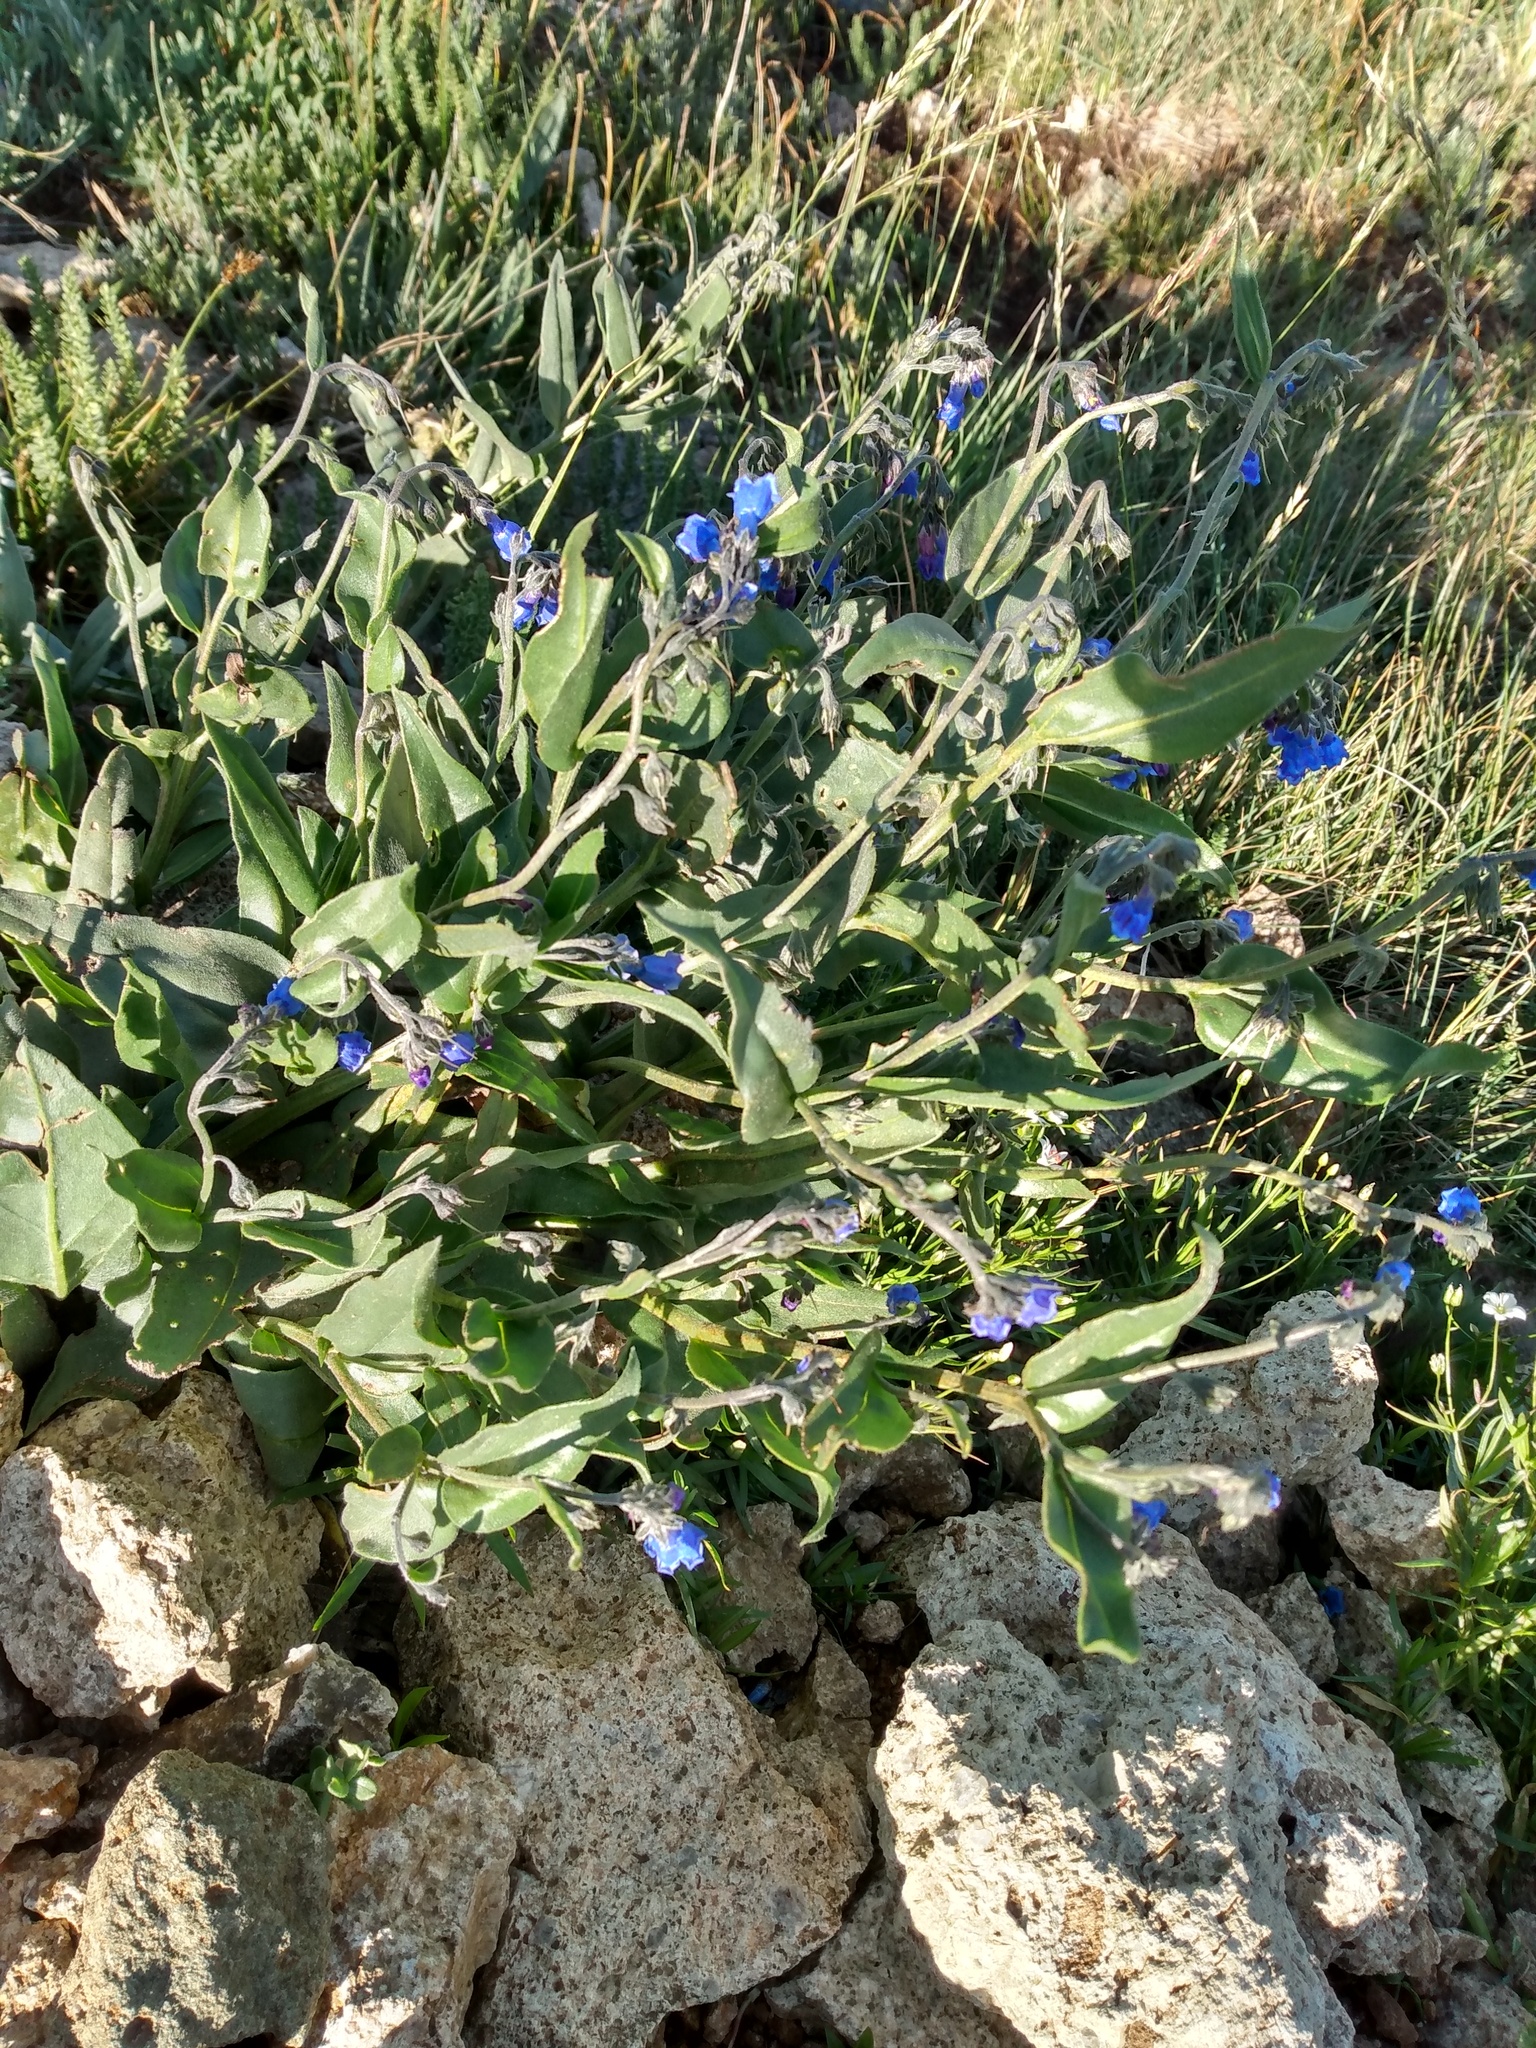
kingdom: Plantae
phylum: Tracheophyta
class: Magnoliopsida
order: Boraginales
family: Boraginaceae
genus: Mertensia
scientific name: Mertensia lanceolata
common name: Lance-leaved bluebells
